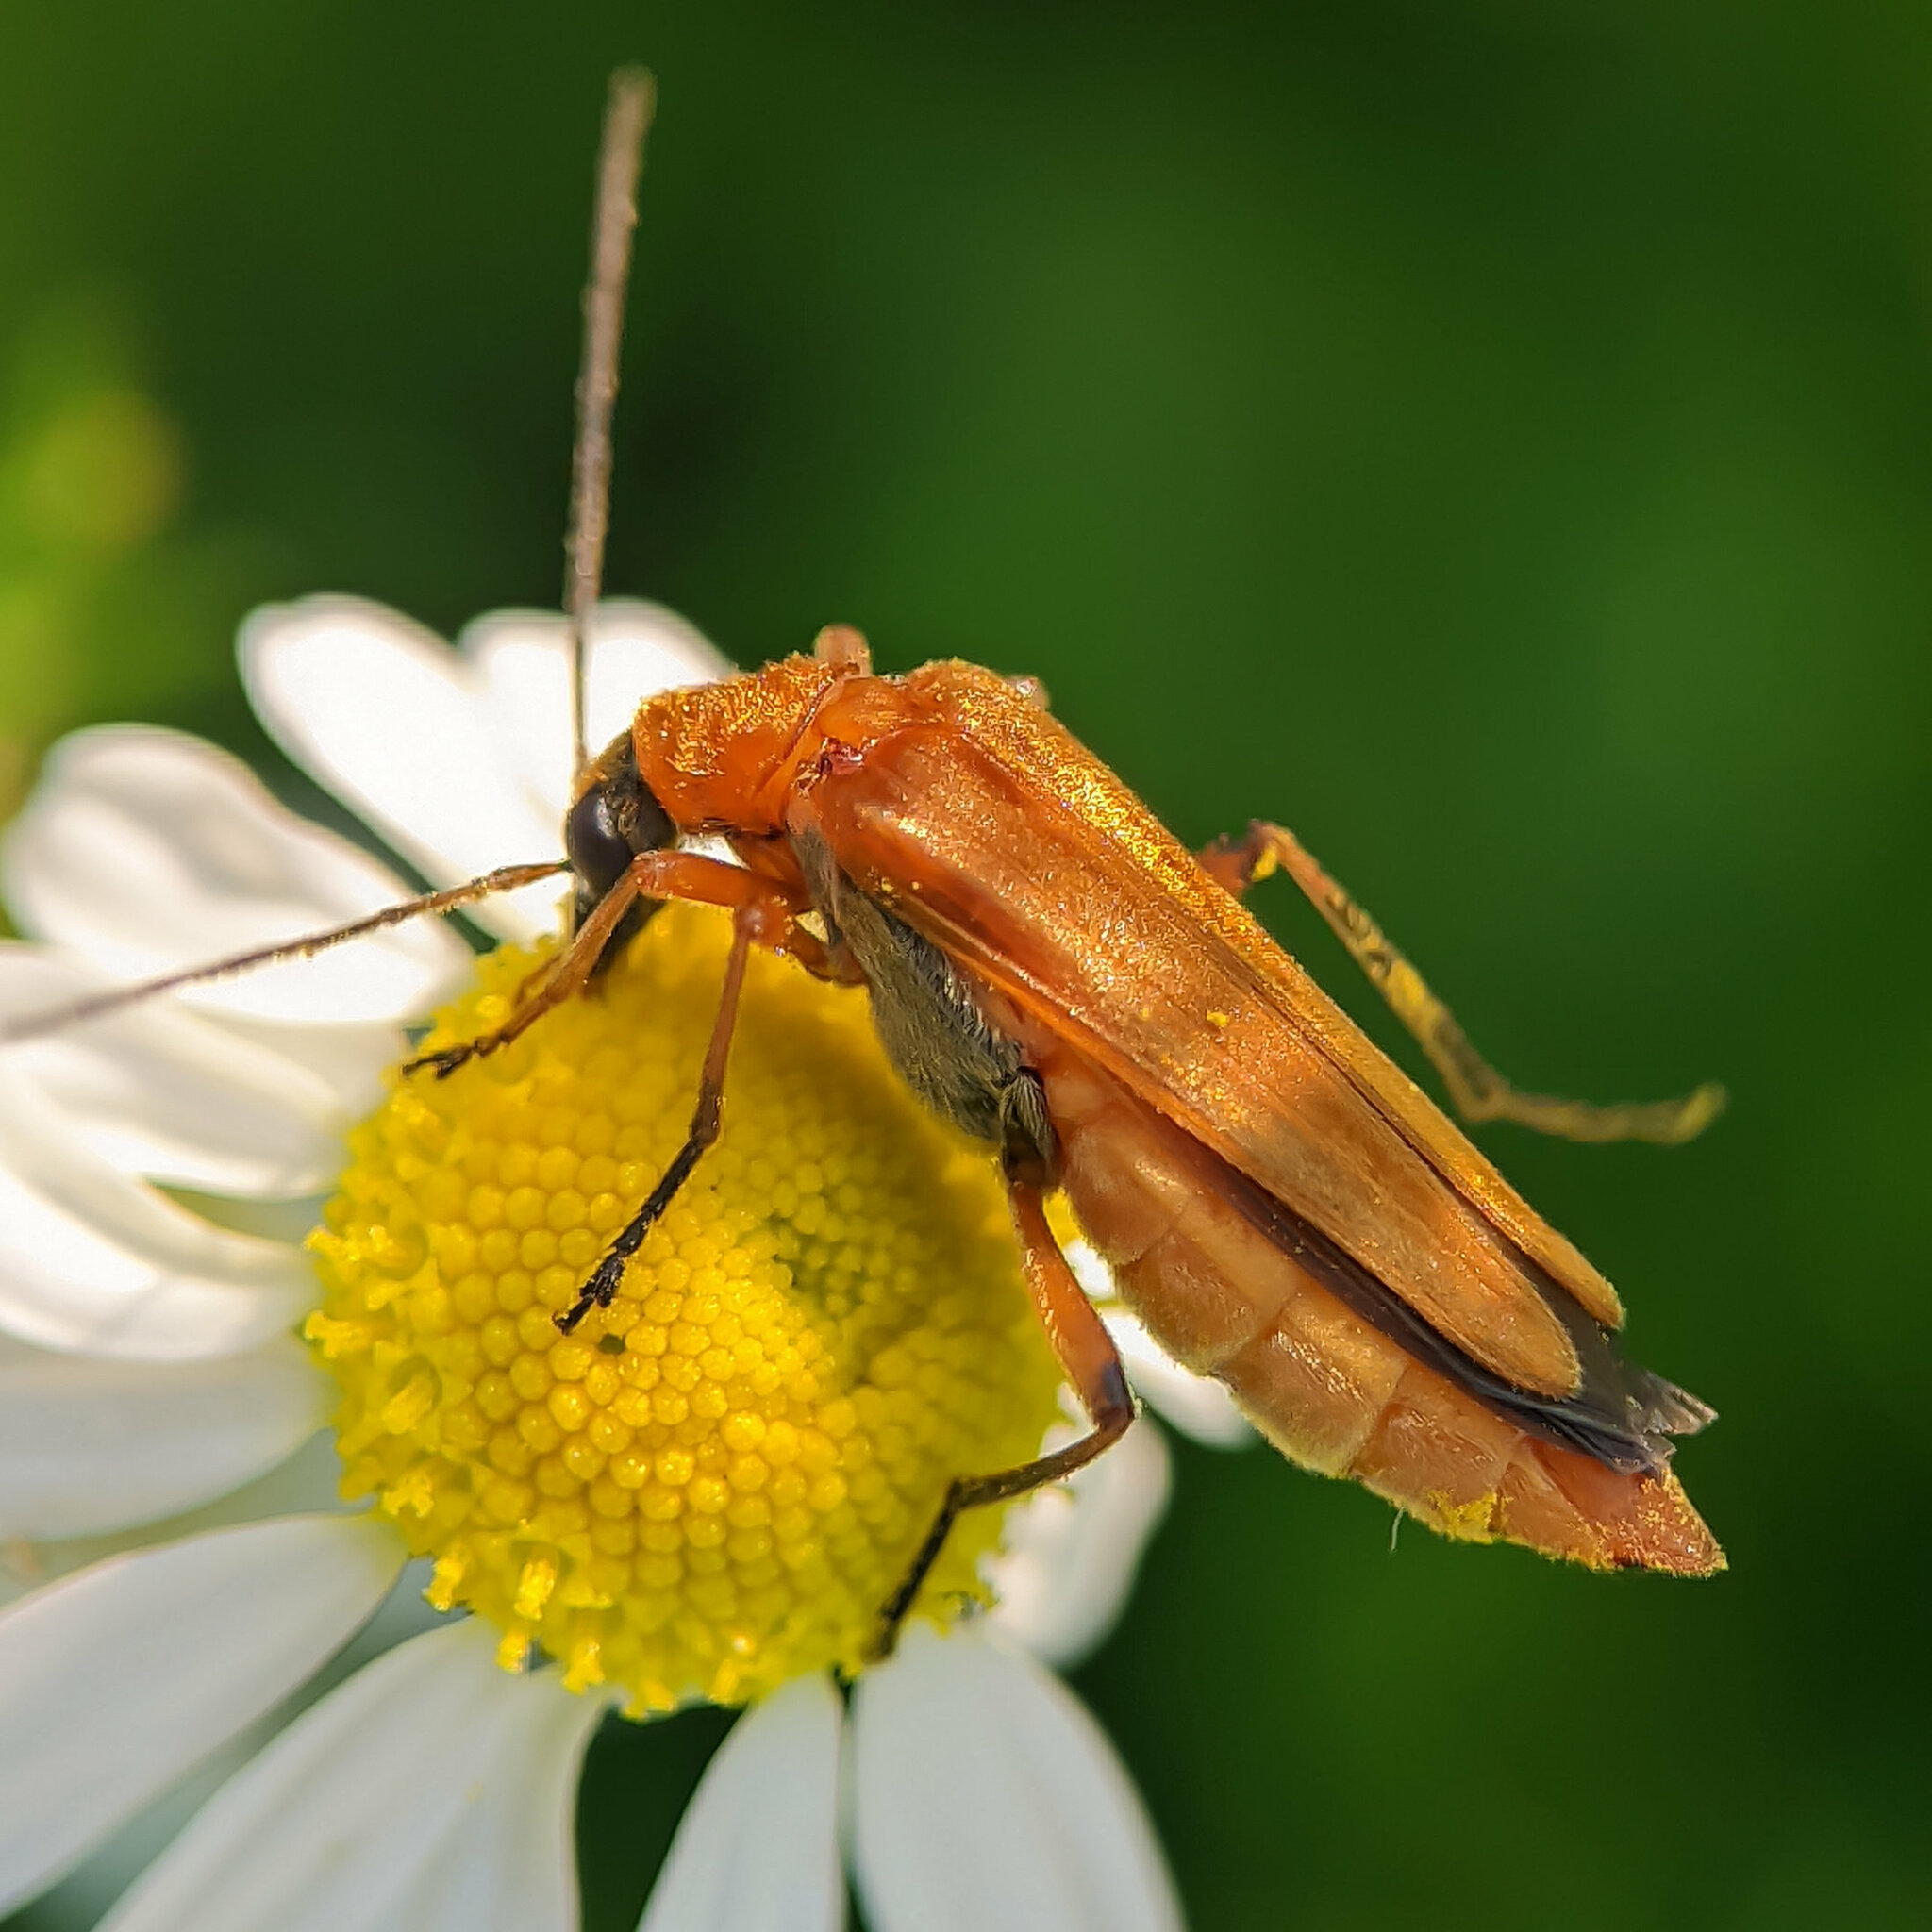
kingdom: Animalia
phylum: Arthropoda
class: Insecta
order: Coleoptera
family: Oedemeridae
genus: Oedemera
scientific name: Oedemera podagrariae
